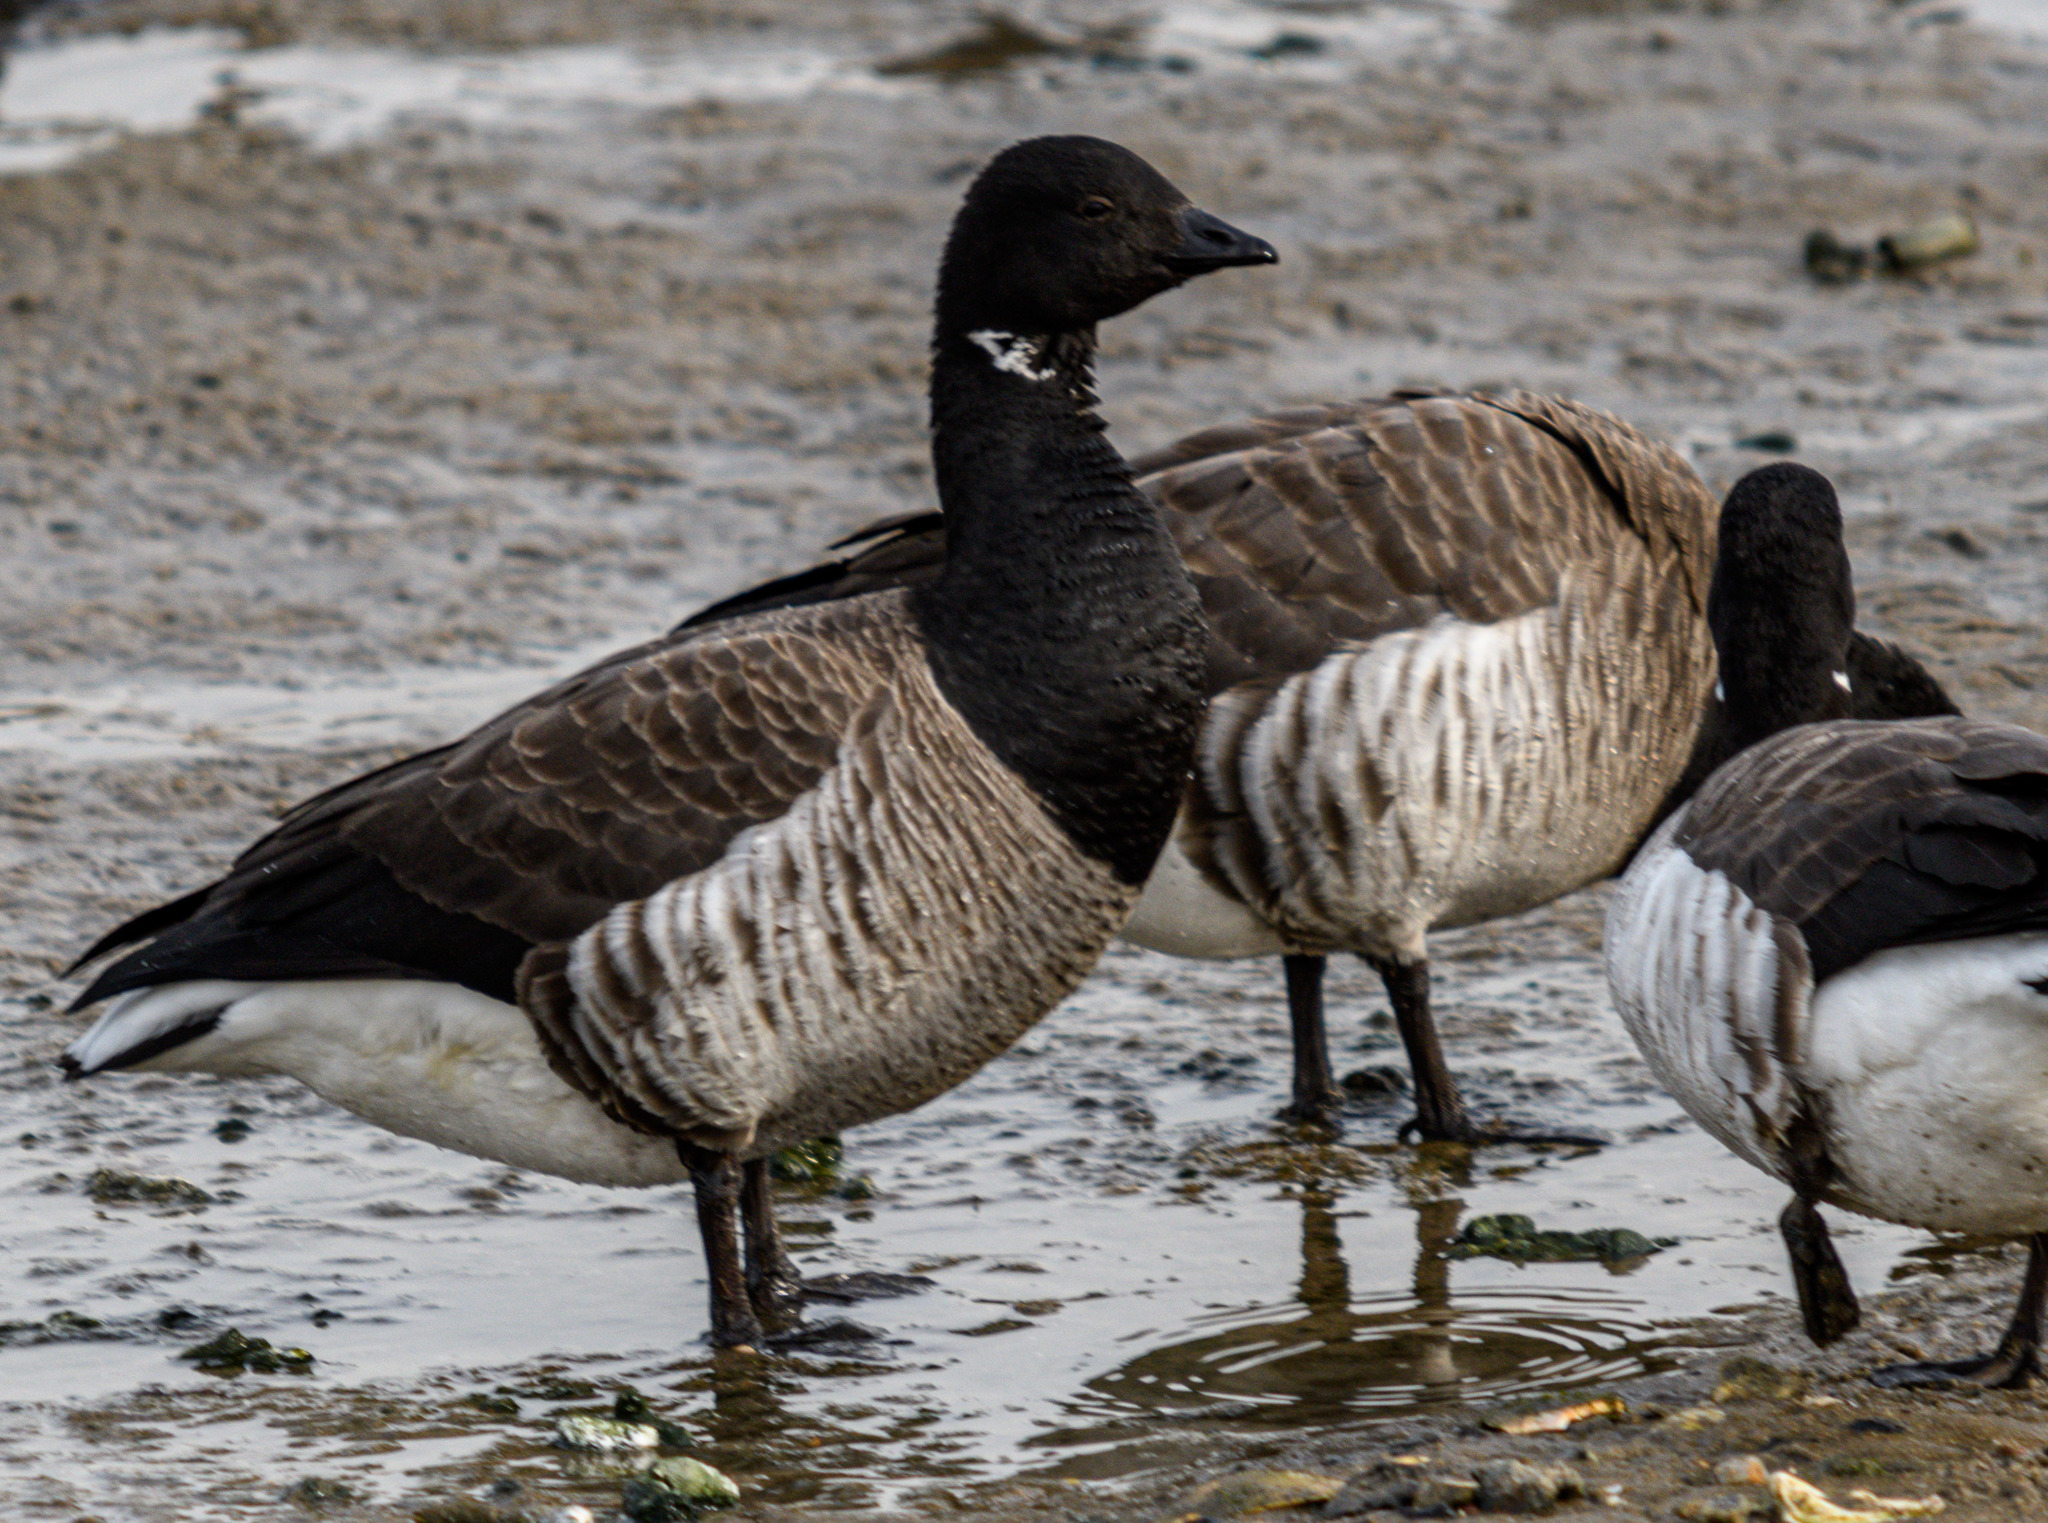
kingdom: Animalia
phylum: Chordata
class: Aves
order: Anseriformes
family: Anatidae
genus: Branta
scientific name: Branta bernicla
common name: Brant goose
